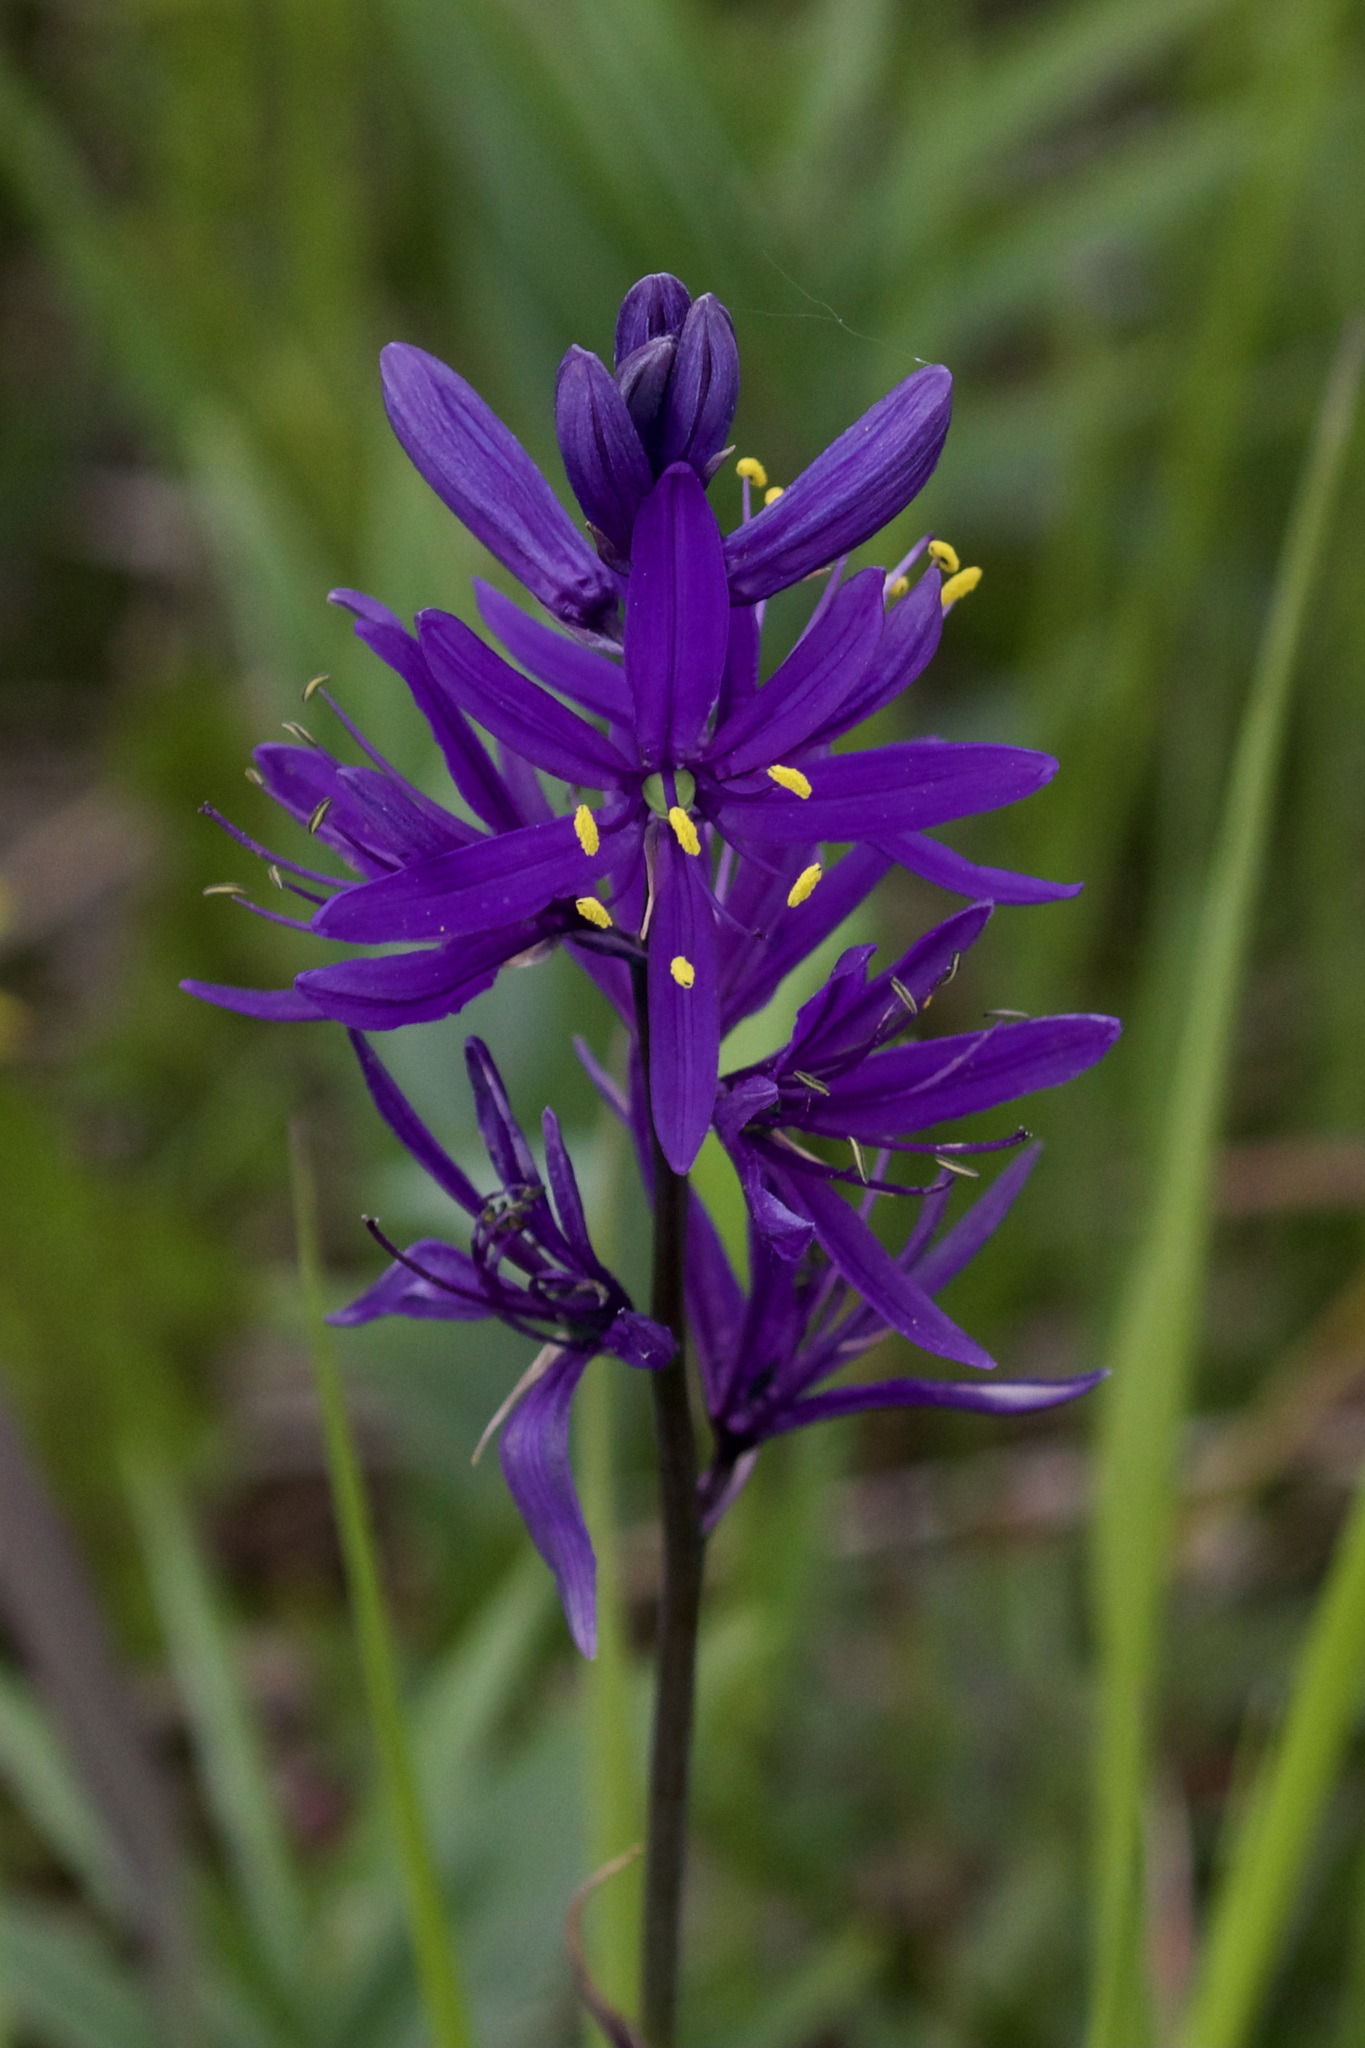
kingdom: Plantae
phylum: Tracheophyta
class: Liliopsida
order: Asparagales
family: Asparagaceae
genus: Camassia
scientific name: Camassia quamash
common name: Common camas
